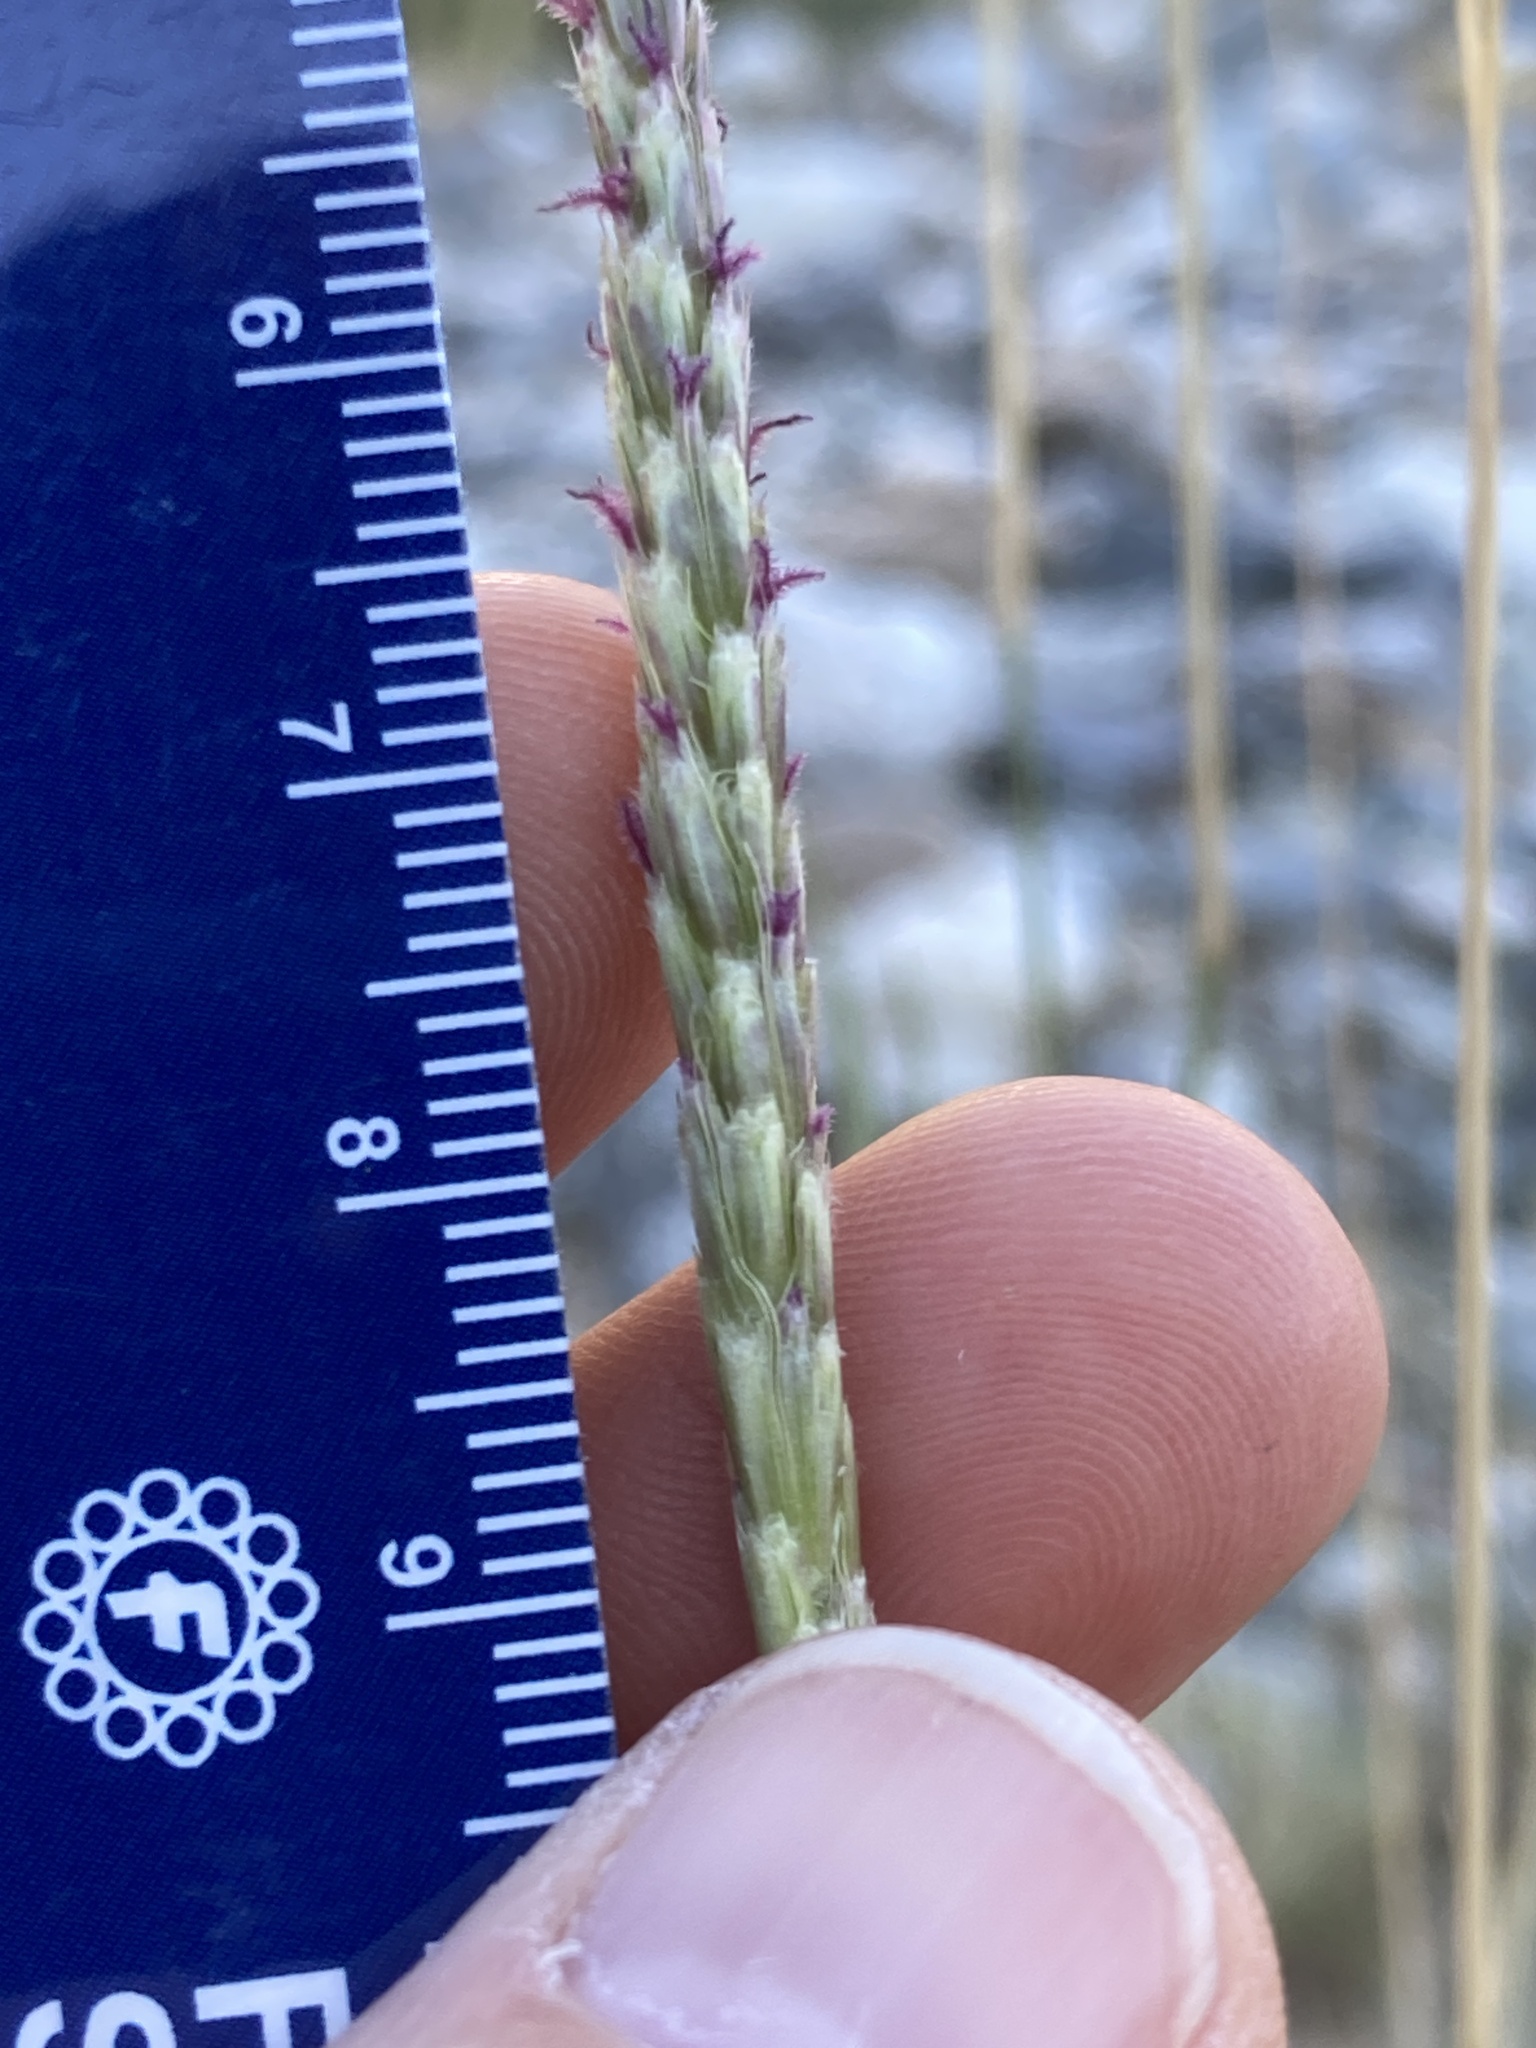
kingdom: Plantae
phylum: Tracheophyta
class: Liliopsida
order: Poales
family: Poaceae
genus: Hilaria
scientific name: Hilaria rigida
